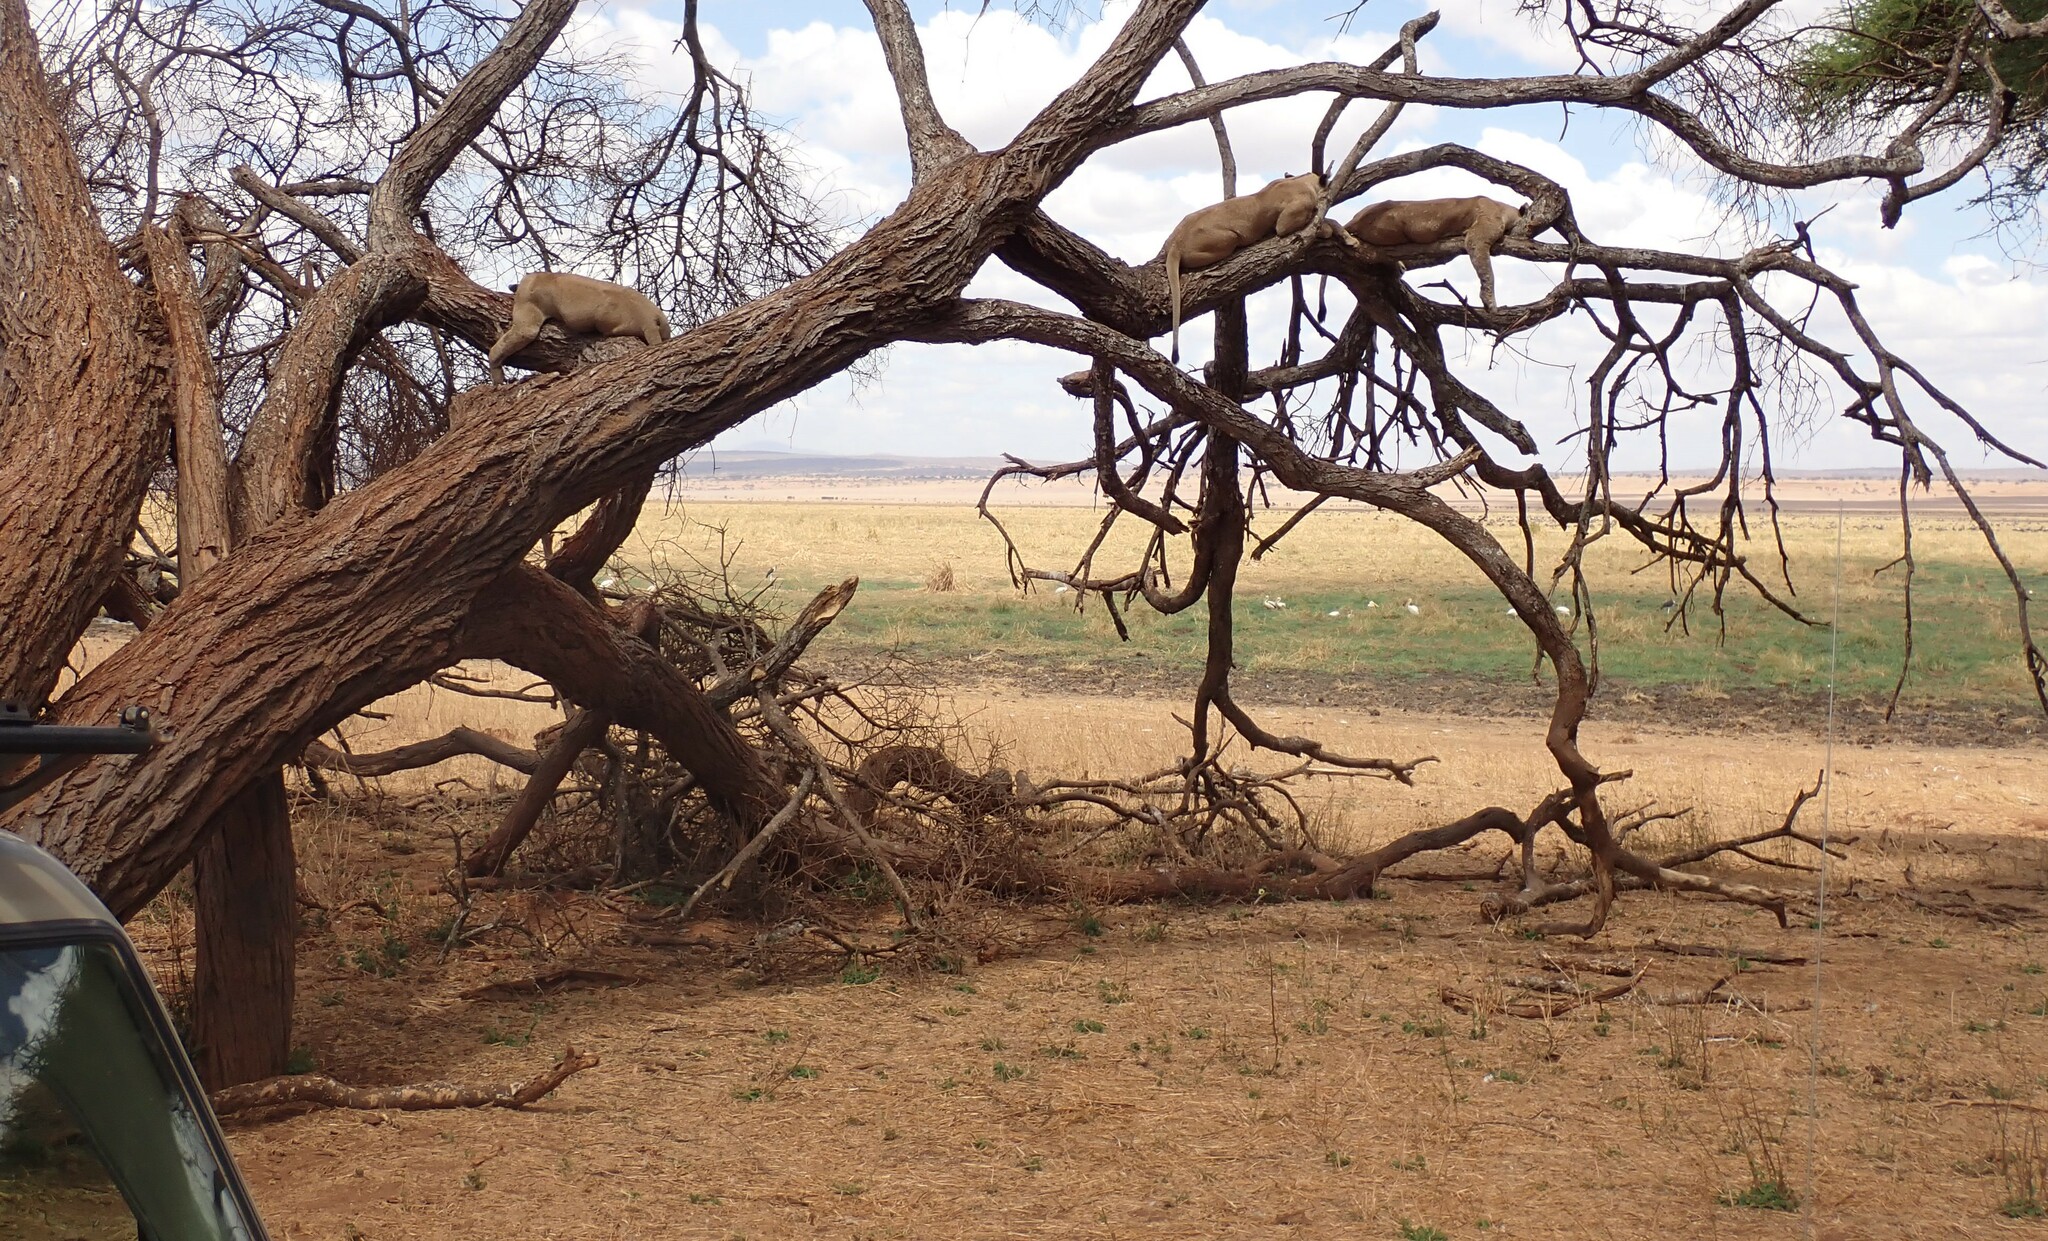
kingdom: Animalia
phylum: Chordata
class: Mammalia
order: Carnivora
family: Felidae
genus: Panthera
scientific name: Panthera leo
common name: Lion
